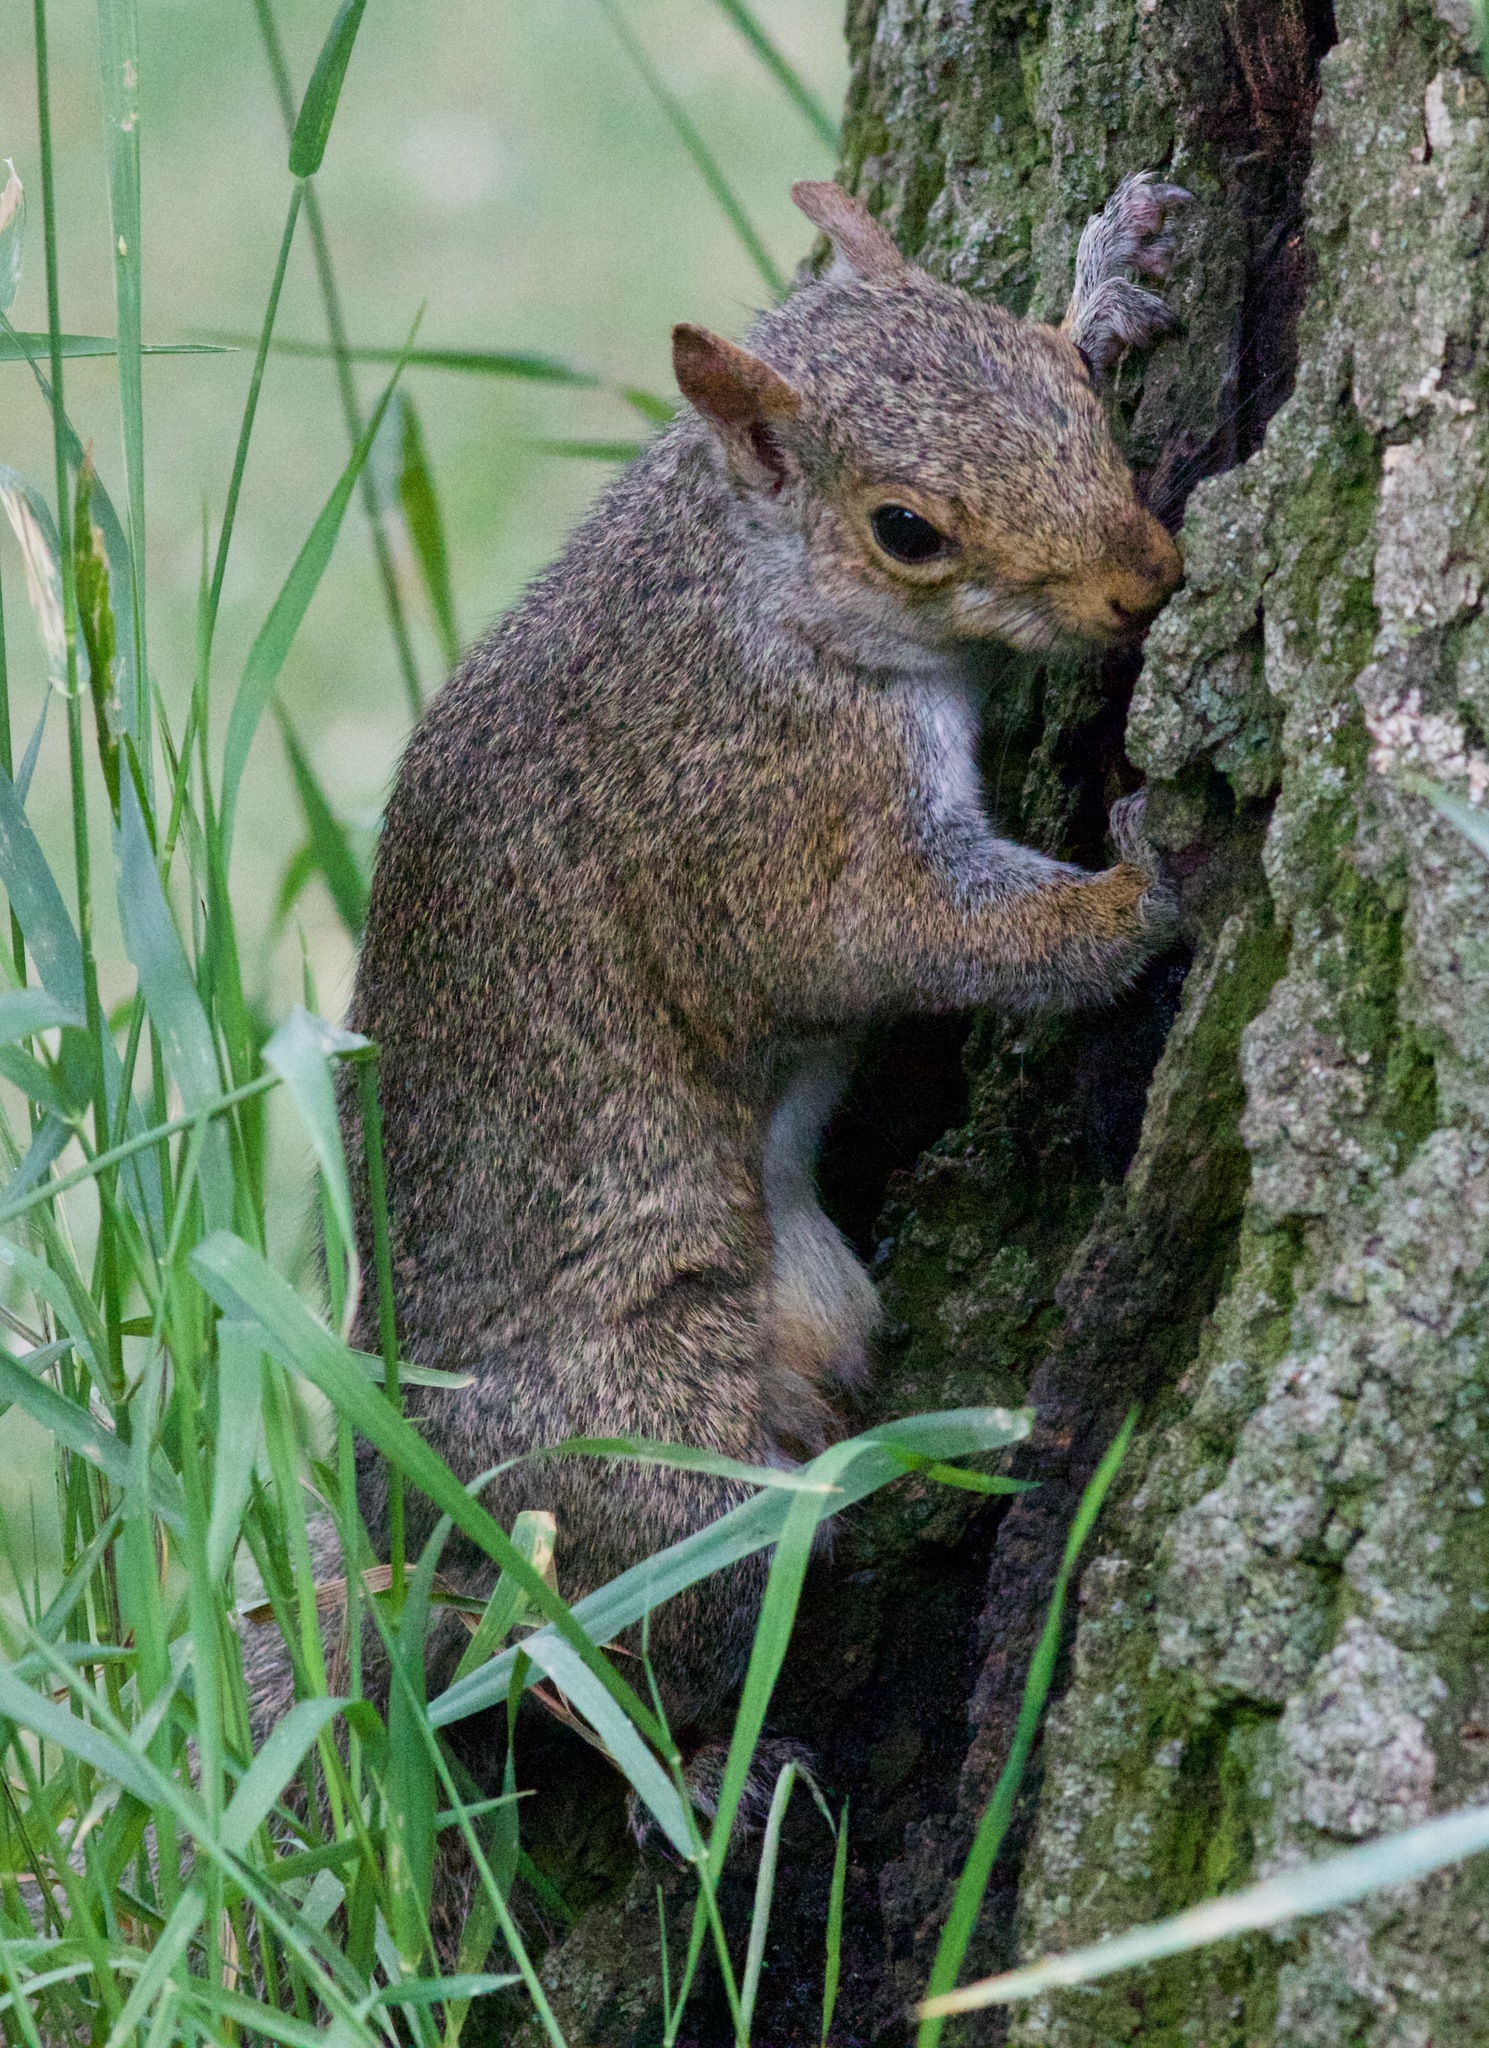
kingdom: Animalia
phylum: Chordata
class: Mammalia
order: Rodentia
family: Sciuridae
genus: Sciurus
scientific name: Sciurus carolinensis
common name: Eastern gray squirrel
